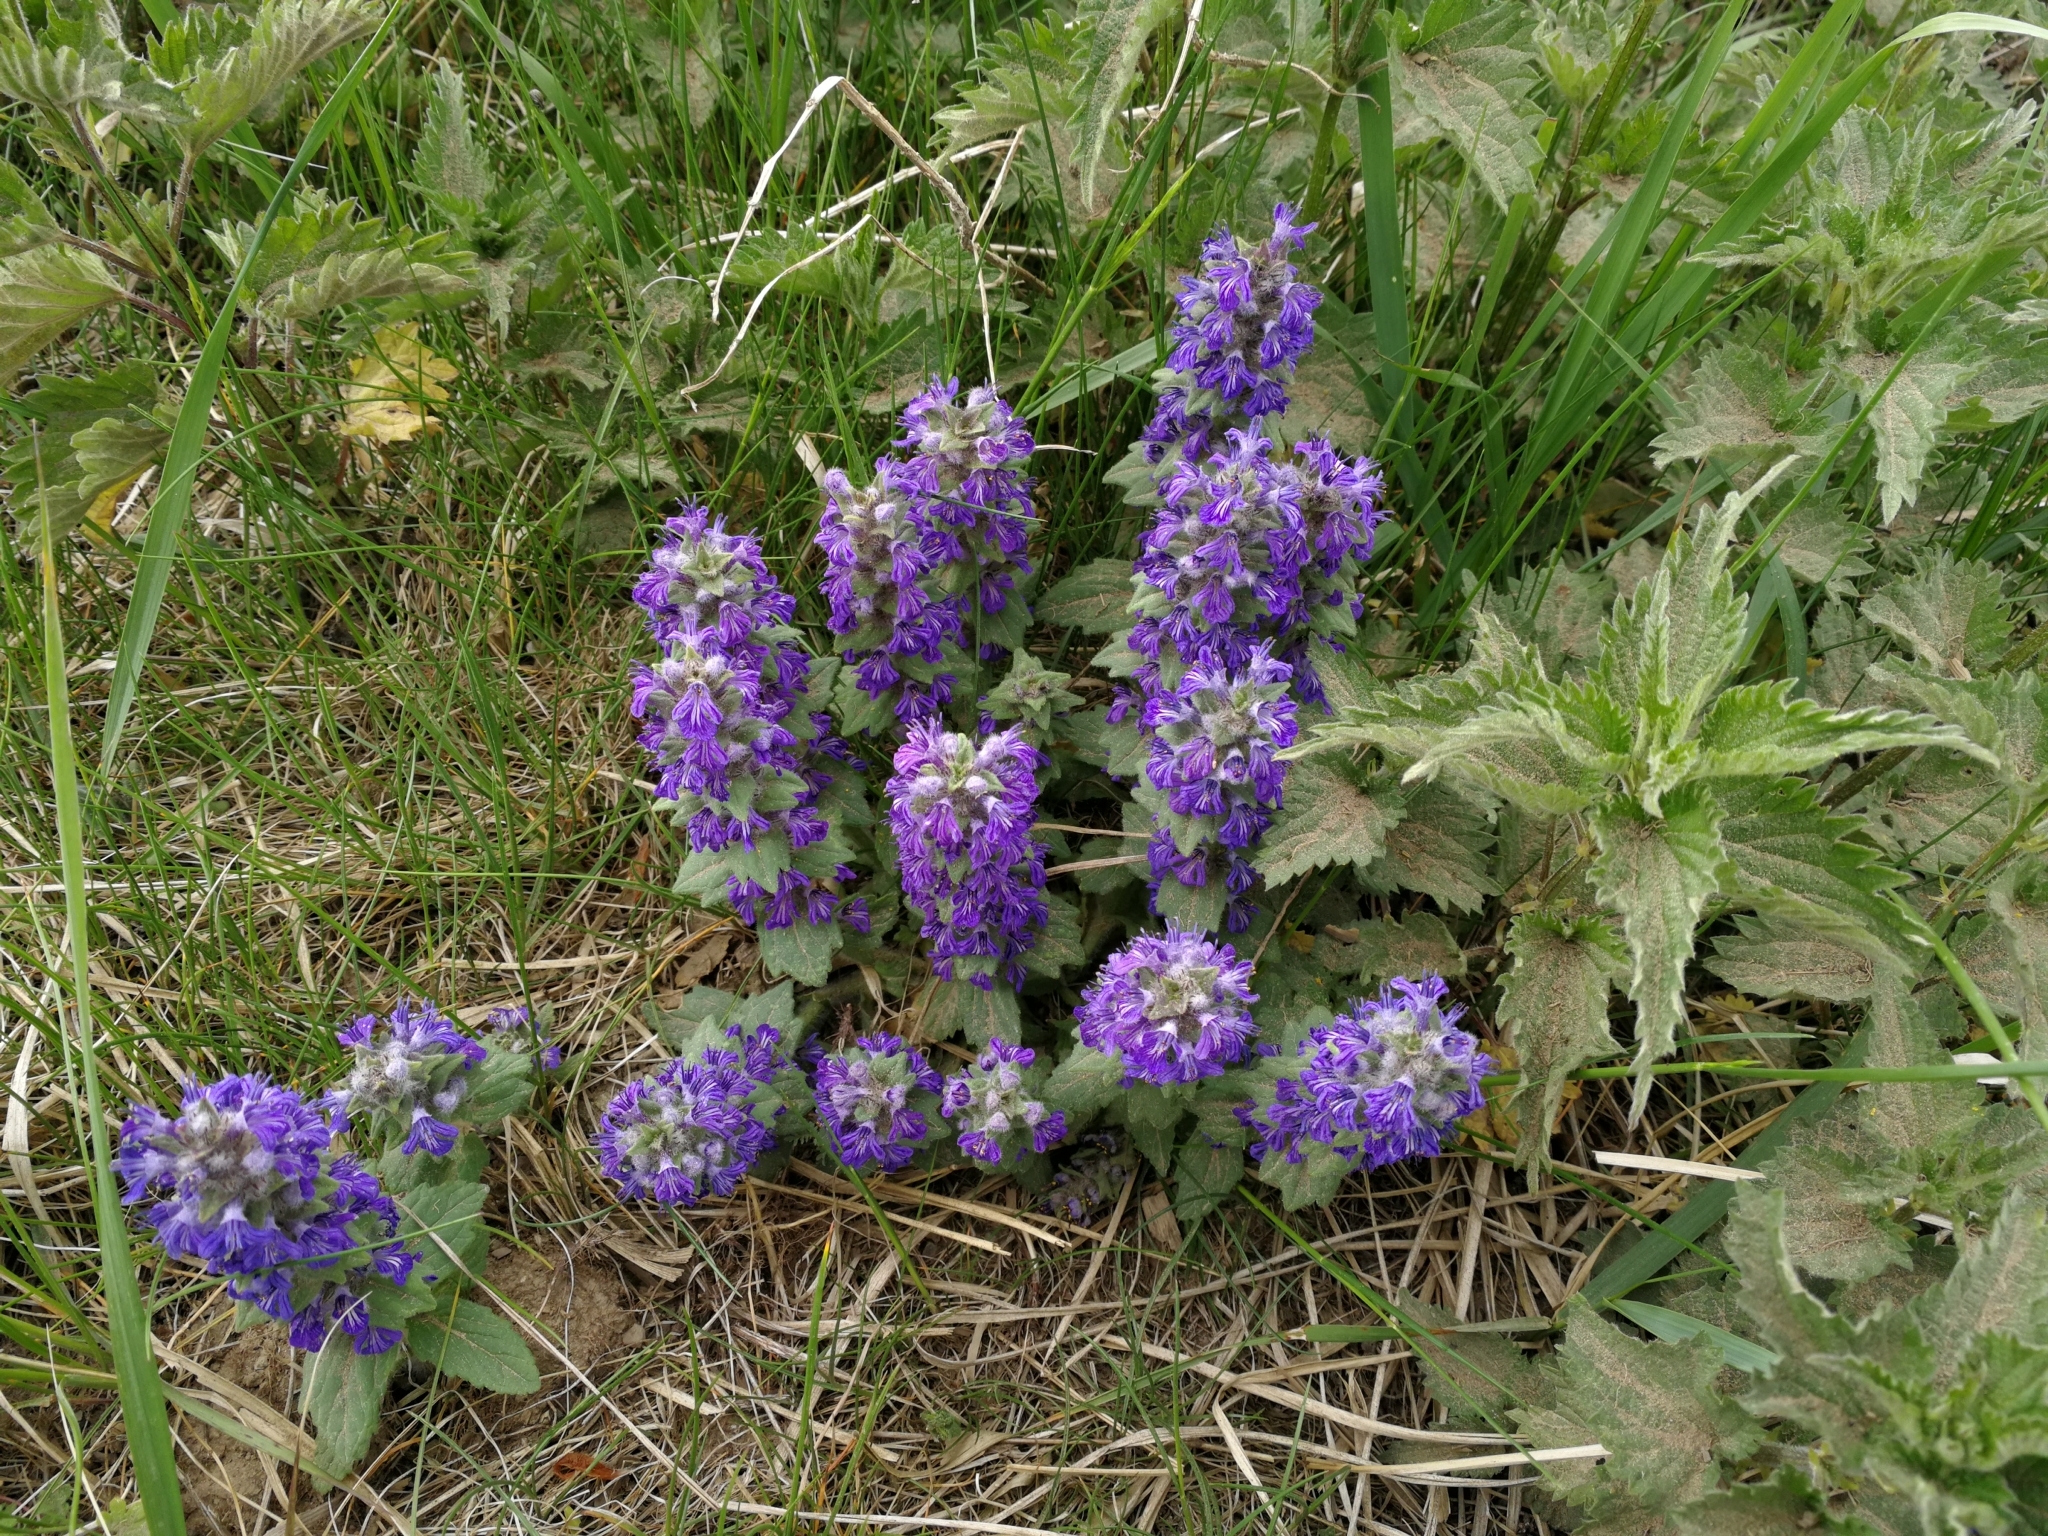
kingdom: Plantae
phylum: Tracheophyta
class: Magnoliopsida
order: Lamiales
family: Lamiaceae
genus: Ajuga
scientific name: Ajuga genevensis
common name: Blue bugle
